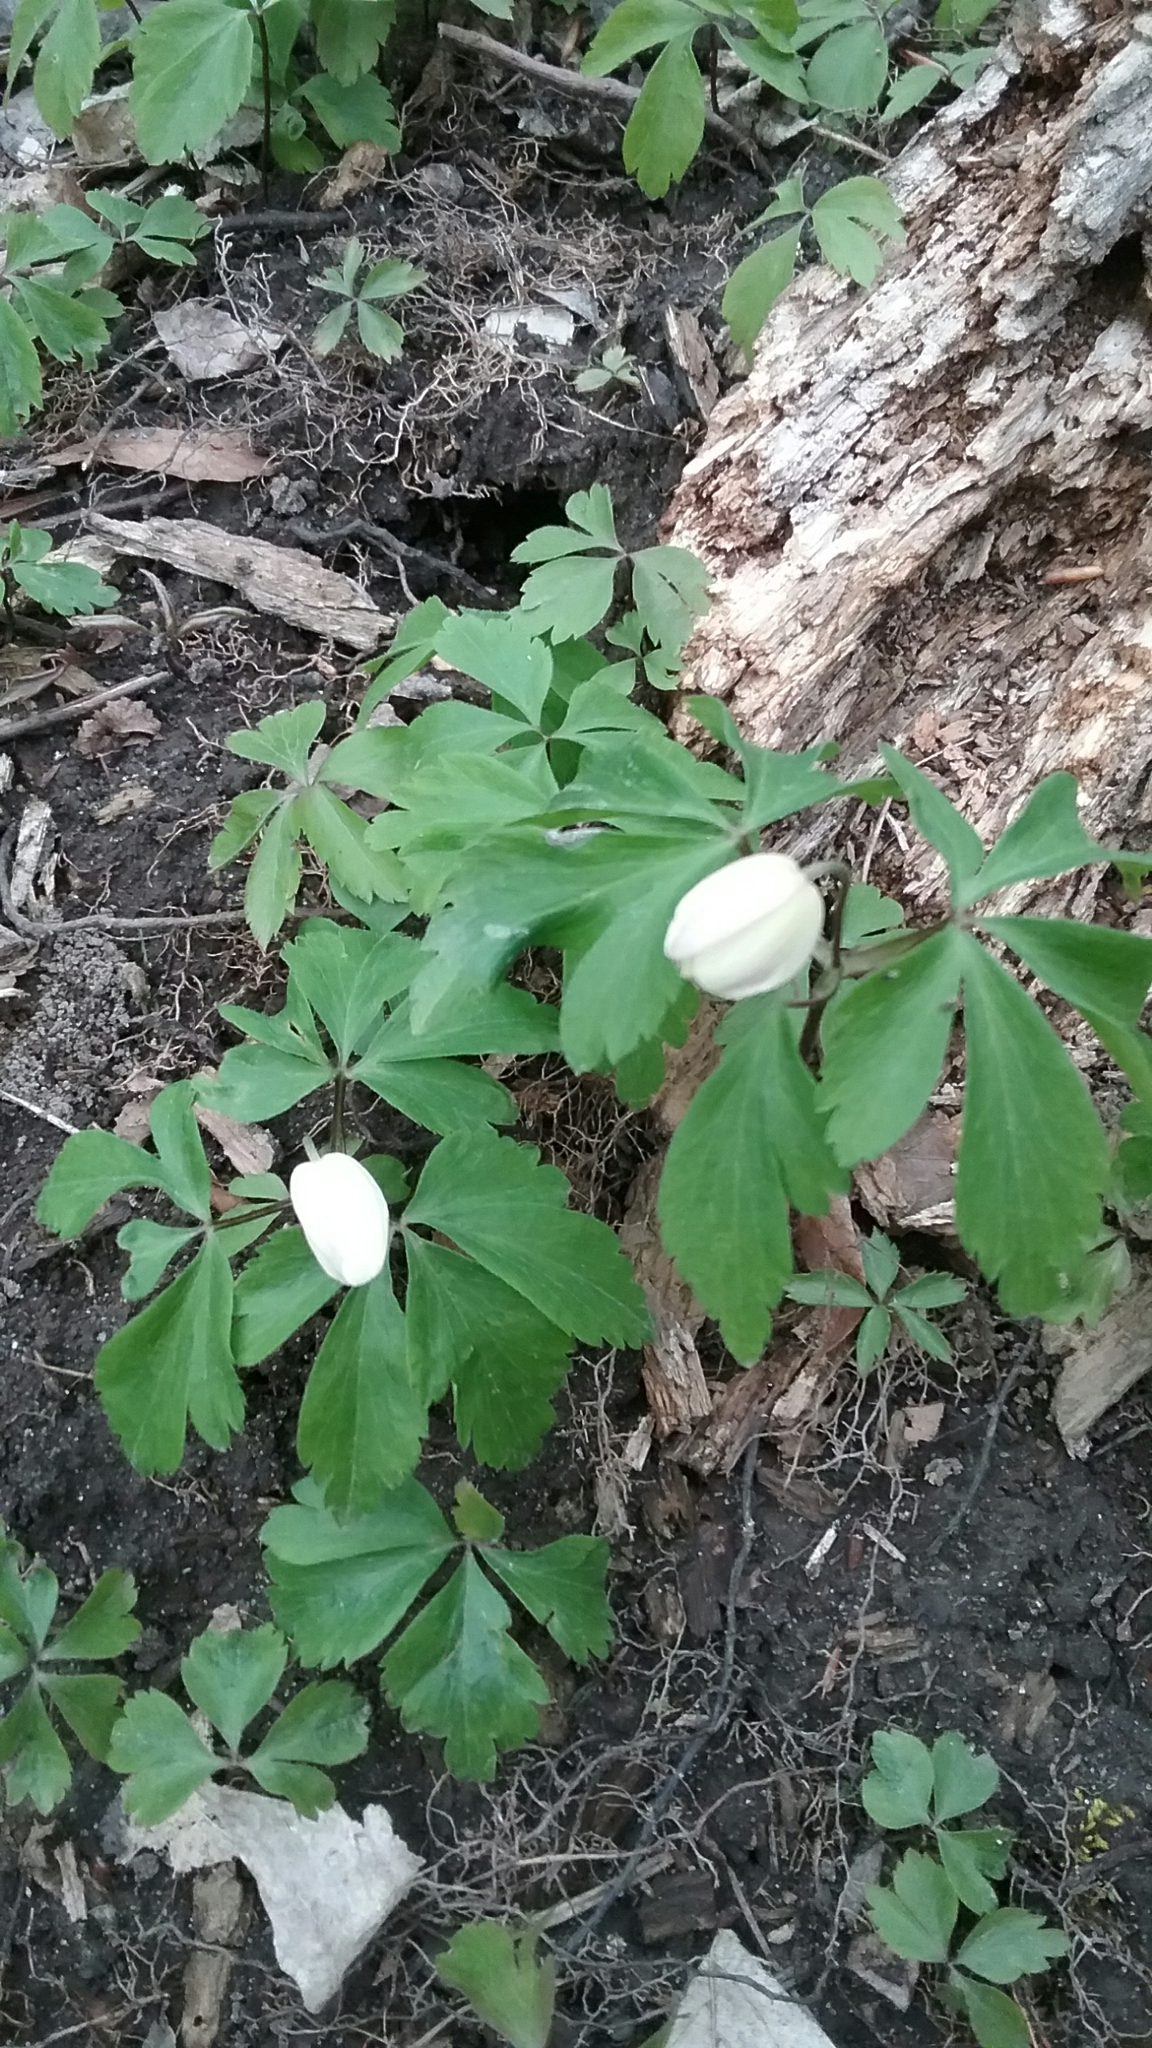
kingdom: Plantae
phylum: Tracheophyta
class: Magnoliopsida
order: Ranunculales
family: Ranunculaceae
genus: Anemone
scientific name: Anemone quinquefolia
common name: Wood anemone
